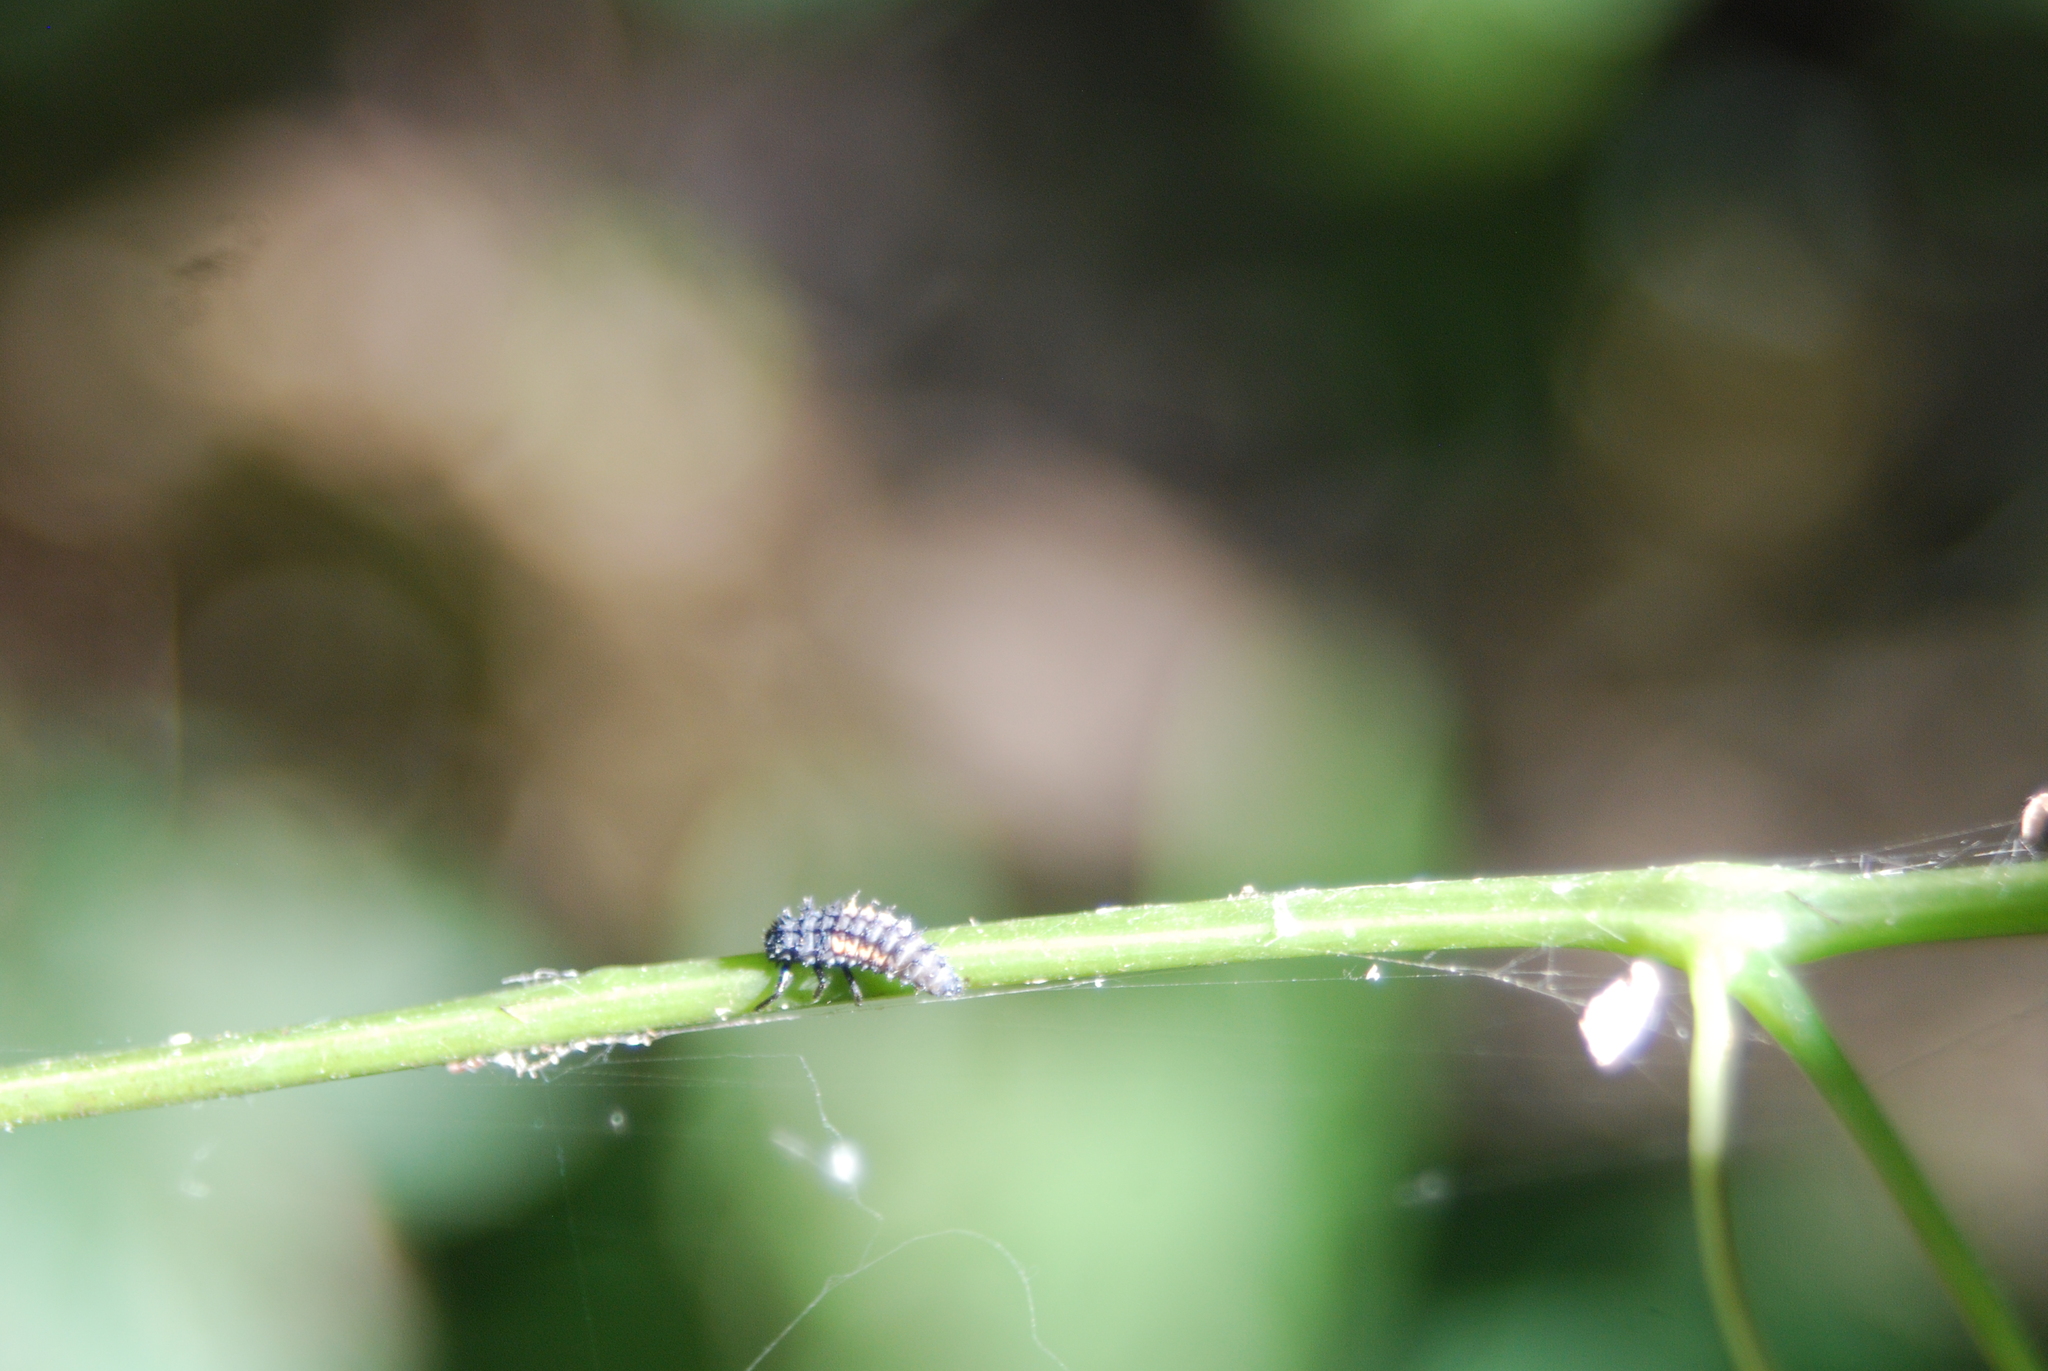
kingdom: Animalia
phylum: Arthropoda
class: Insecta
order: Coleoptera
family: Coccinellidae
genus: Harmonia
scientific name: Harmonia axyridis
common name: Harlequin ladybird
